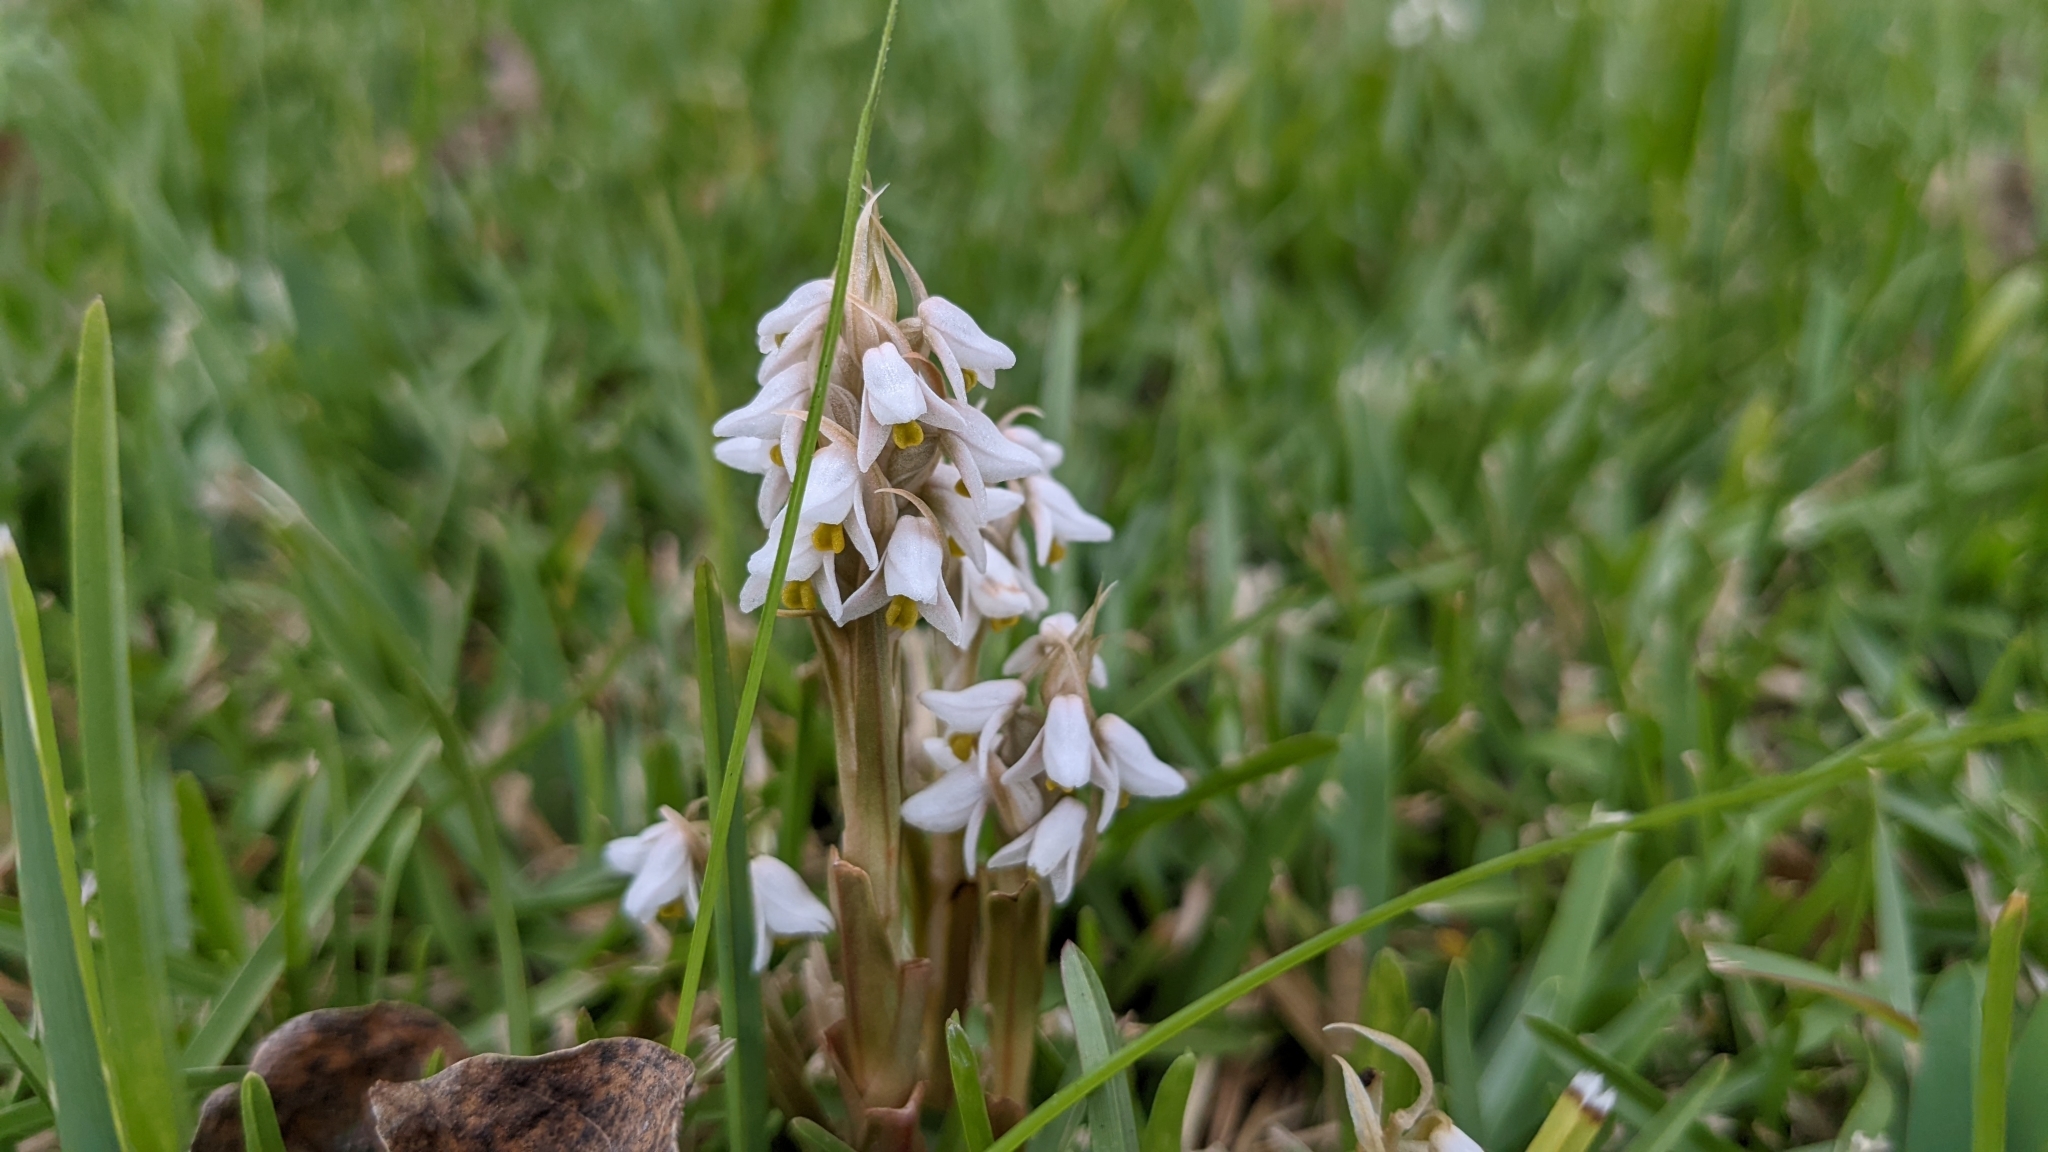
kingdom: Plantae
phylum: Tracheophyta
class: Liliopsida
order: Asparagales
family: Orchidaceae
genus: Zeuxine
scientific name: Zeuxine strateumatica
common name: Soldier's orchid
